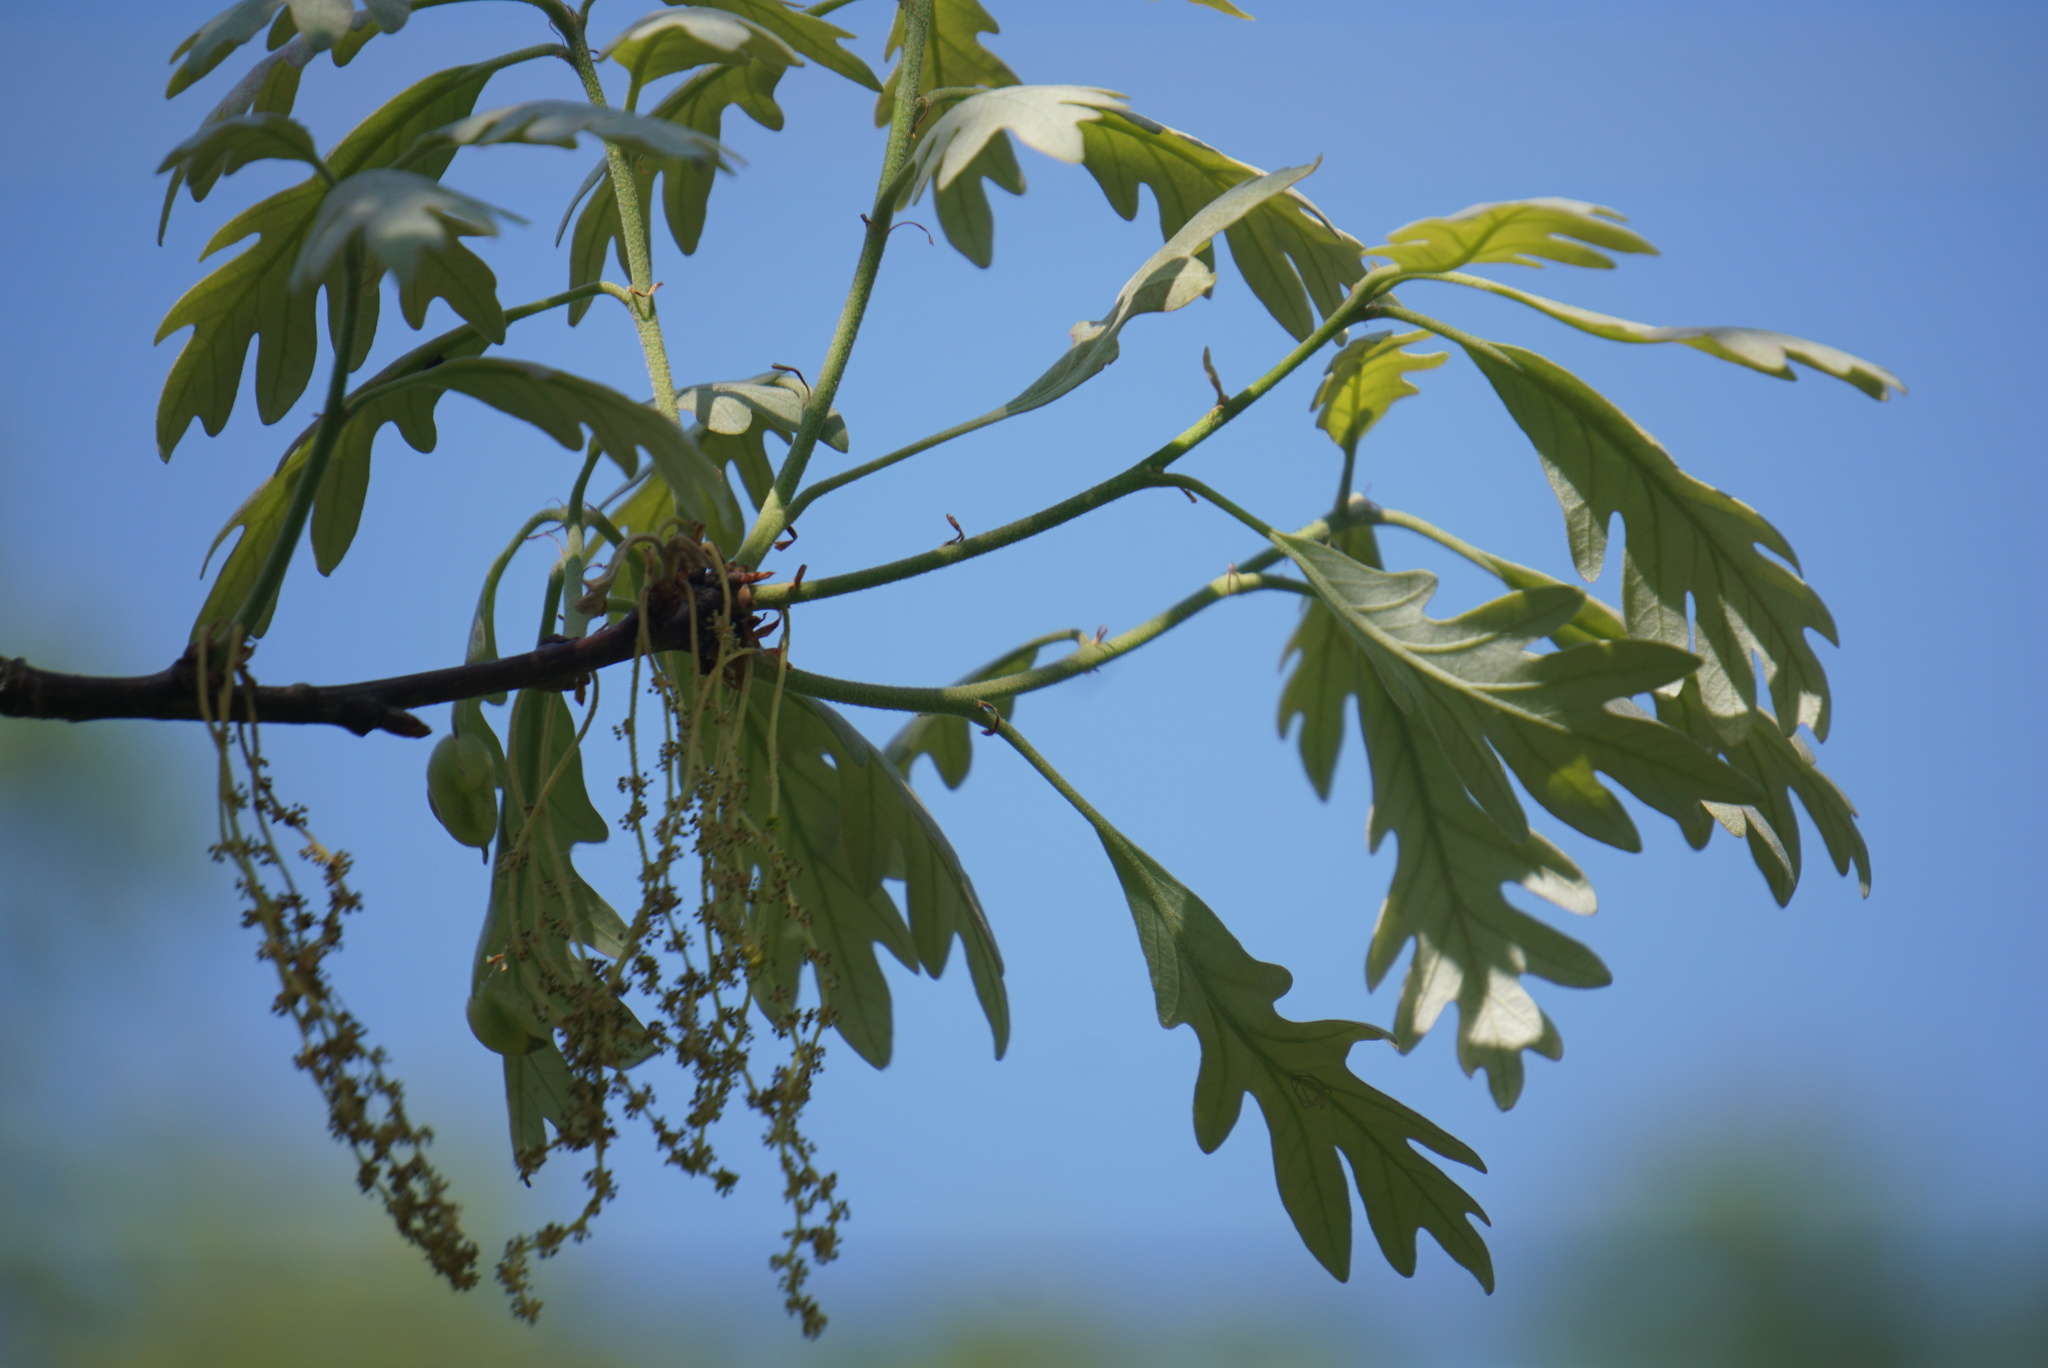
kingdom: Plantae
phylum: Tracheophyta
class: Magnoliopsida
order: Fagales
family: Fagaceae
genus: Quercus
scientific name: Quercus alba
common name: White oak
